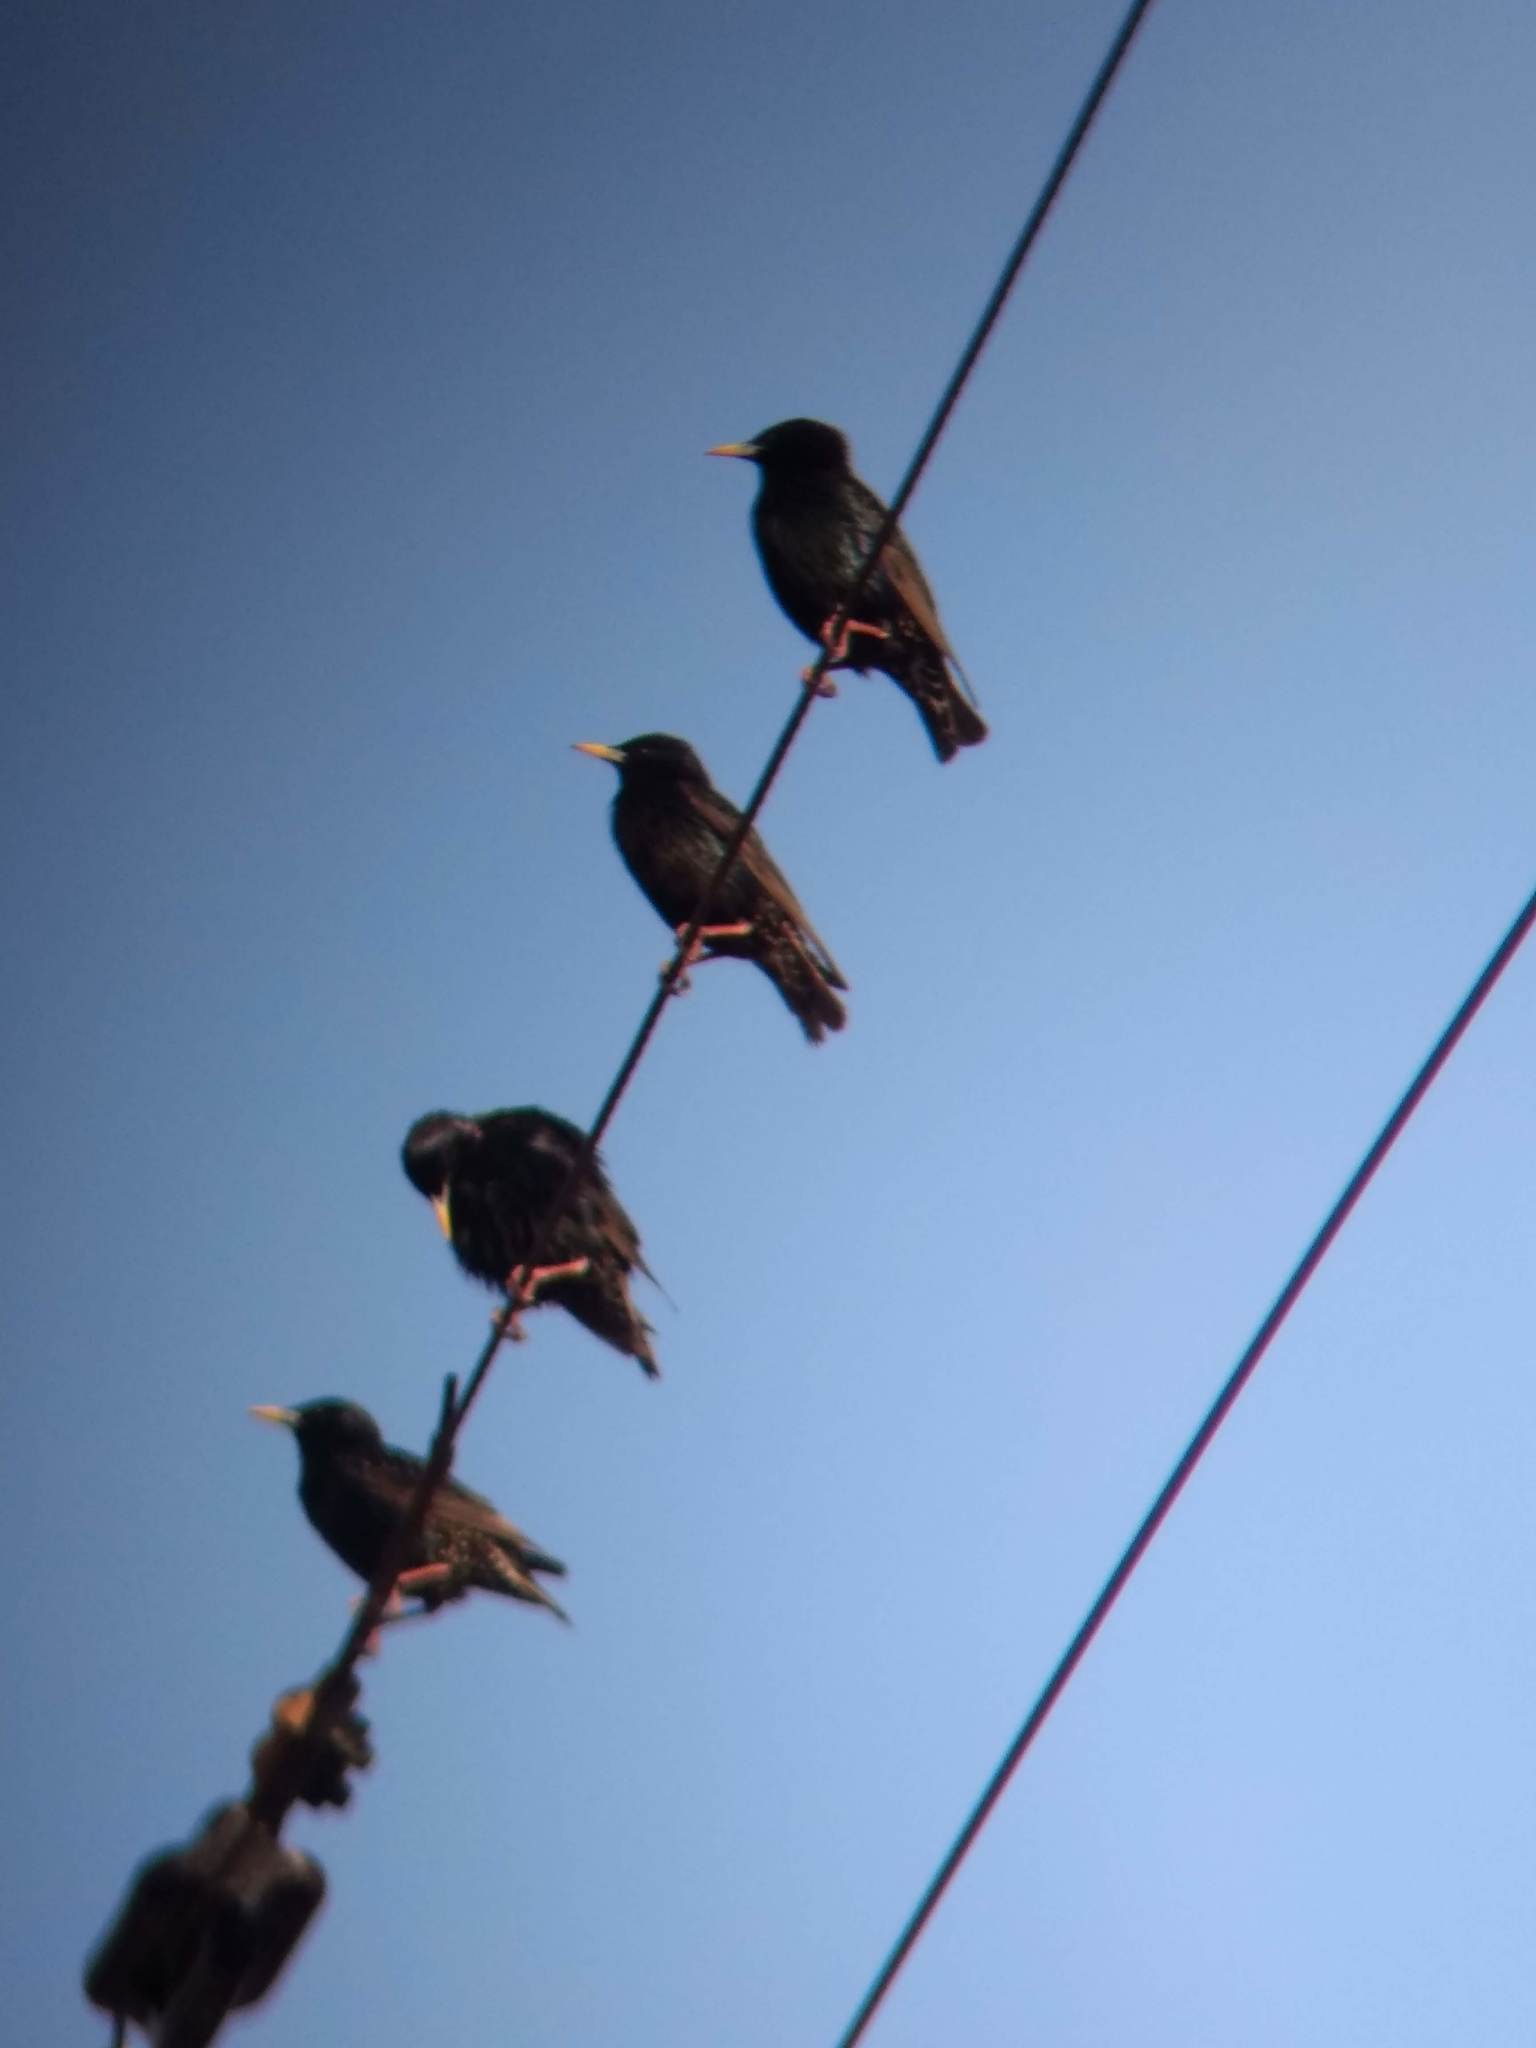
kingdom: Animalia
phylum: Chordata
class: Aves
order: Passeriformes
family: Sturnidae
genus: Sturnus
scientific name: Sturnus vulgaris
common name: Common starling
